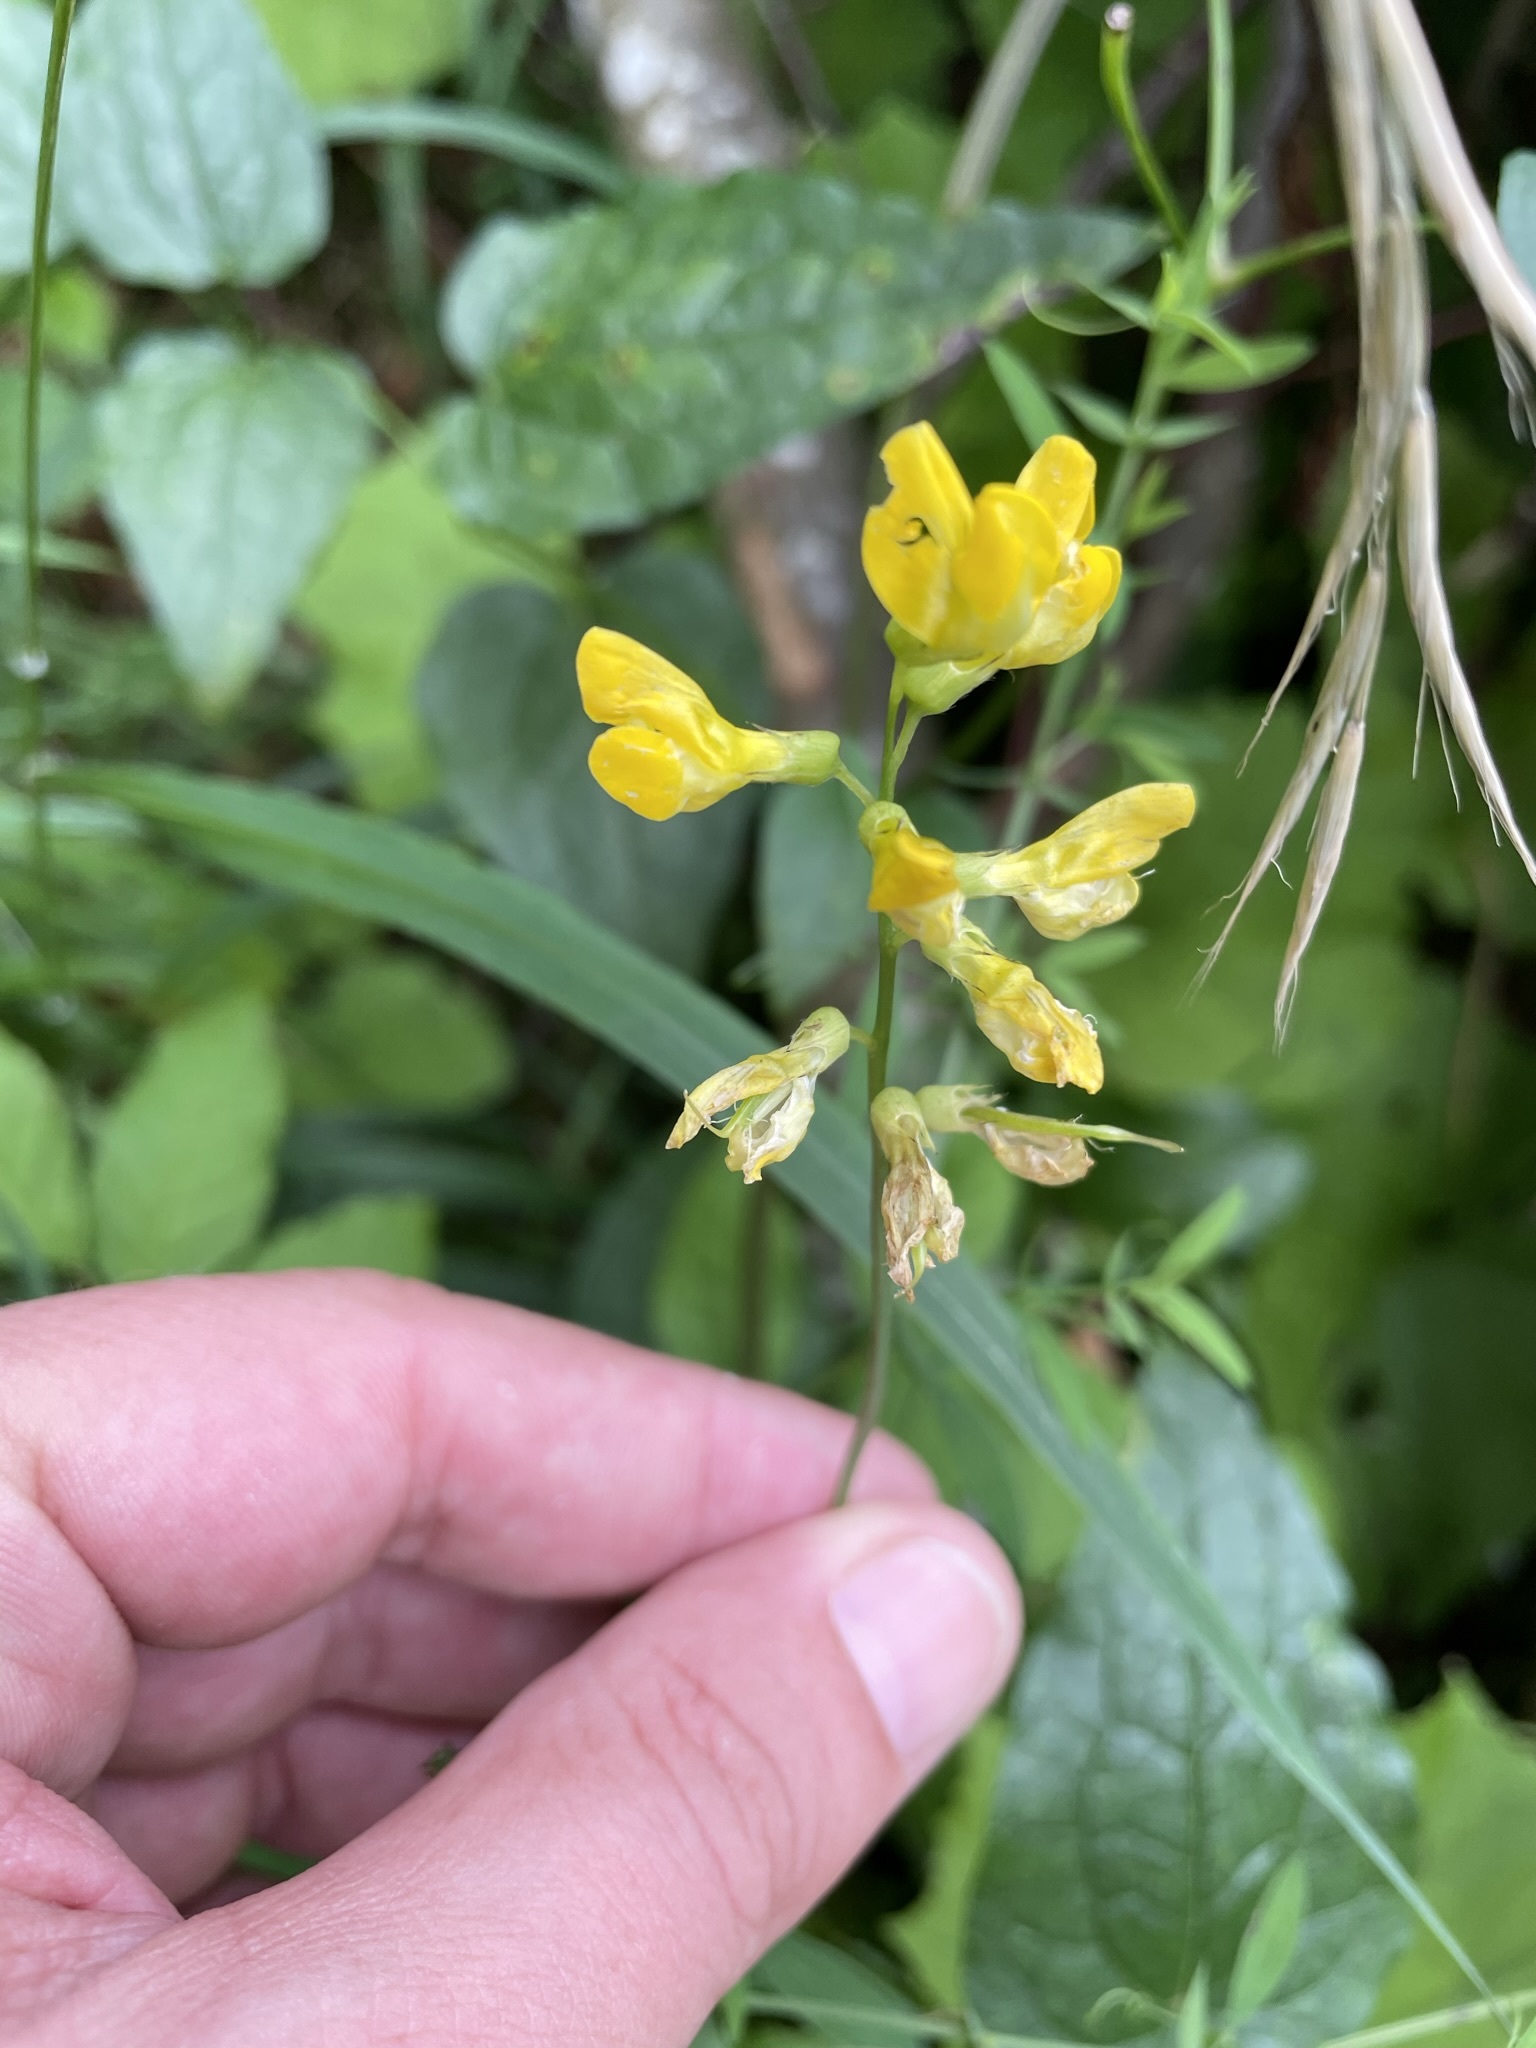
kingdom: Plantae
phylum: Tracheophyta
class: Magnoliopsida
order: Fabales
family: Fabaceae
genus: Lathyrus
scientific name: Lathyrus pratensis
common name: Meadow vetchling
